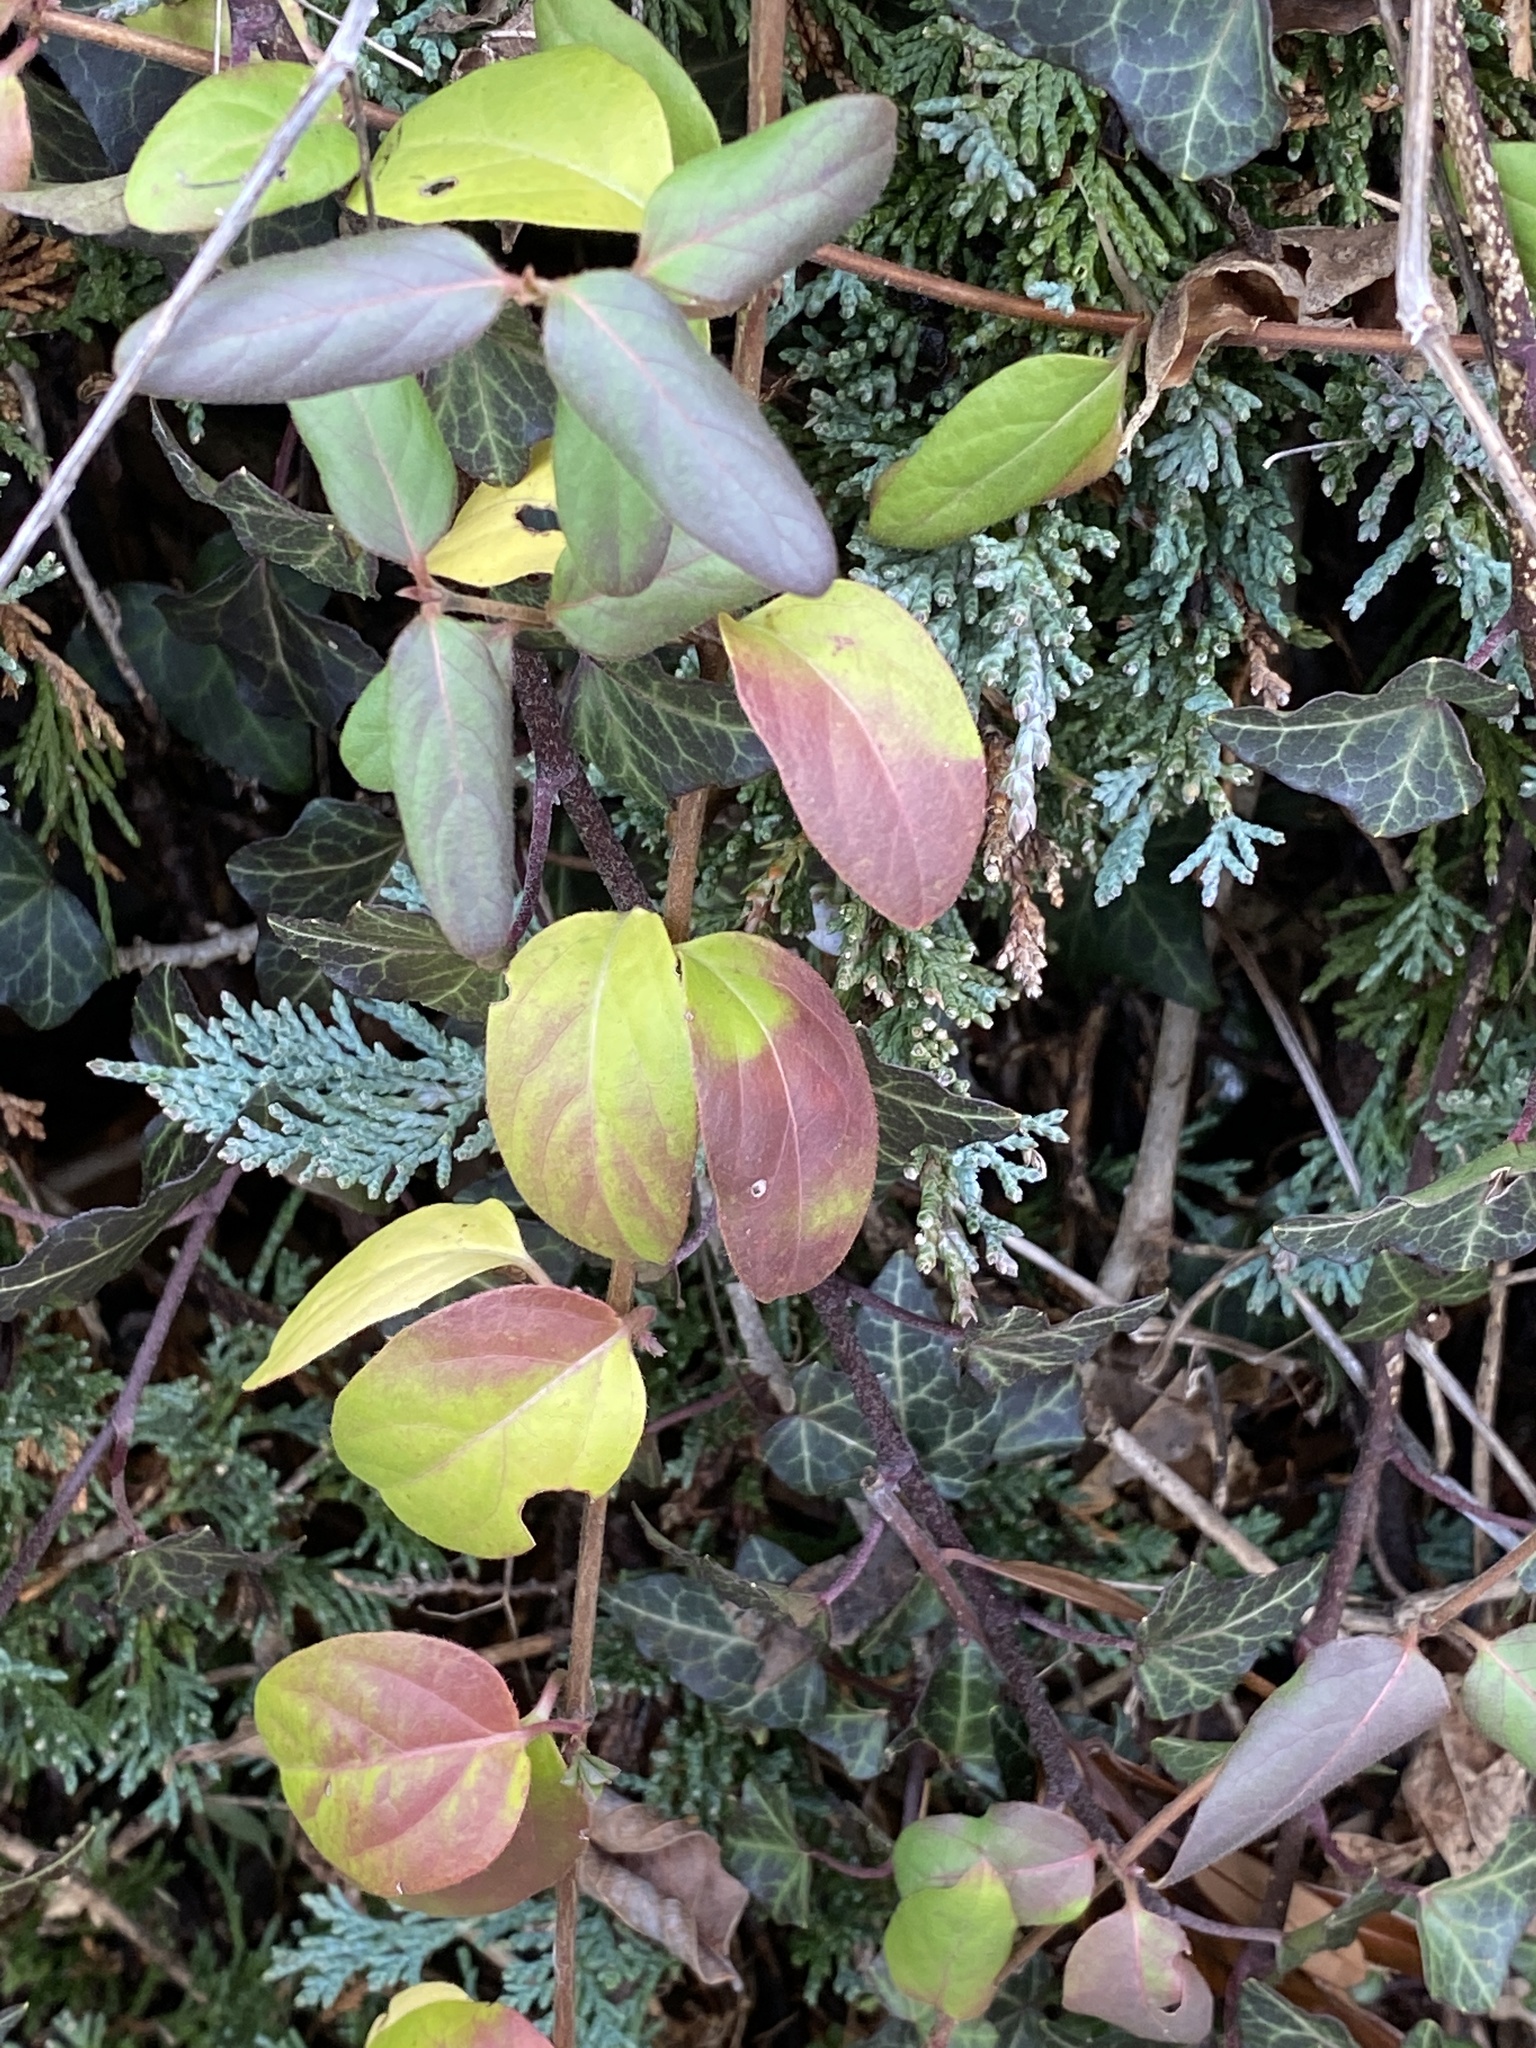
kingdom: Plantae
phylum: Tracheophyta
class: Magnoliopsida
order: Dipsacales
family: Caprifoliaceae
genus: Lonicera
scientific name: Lonicera japonica
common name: Japanese honeysuckle
